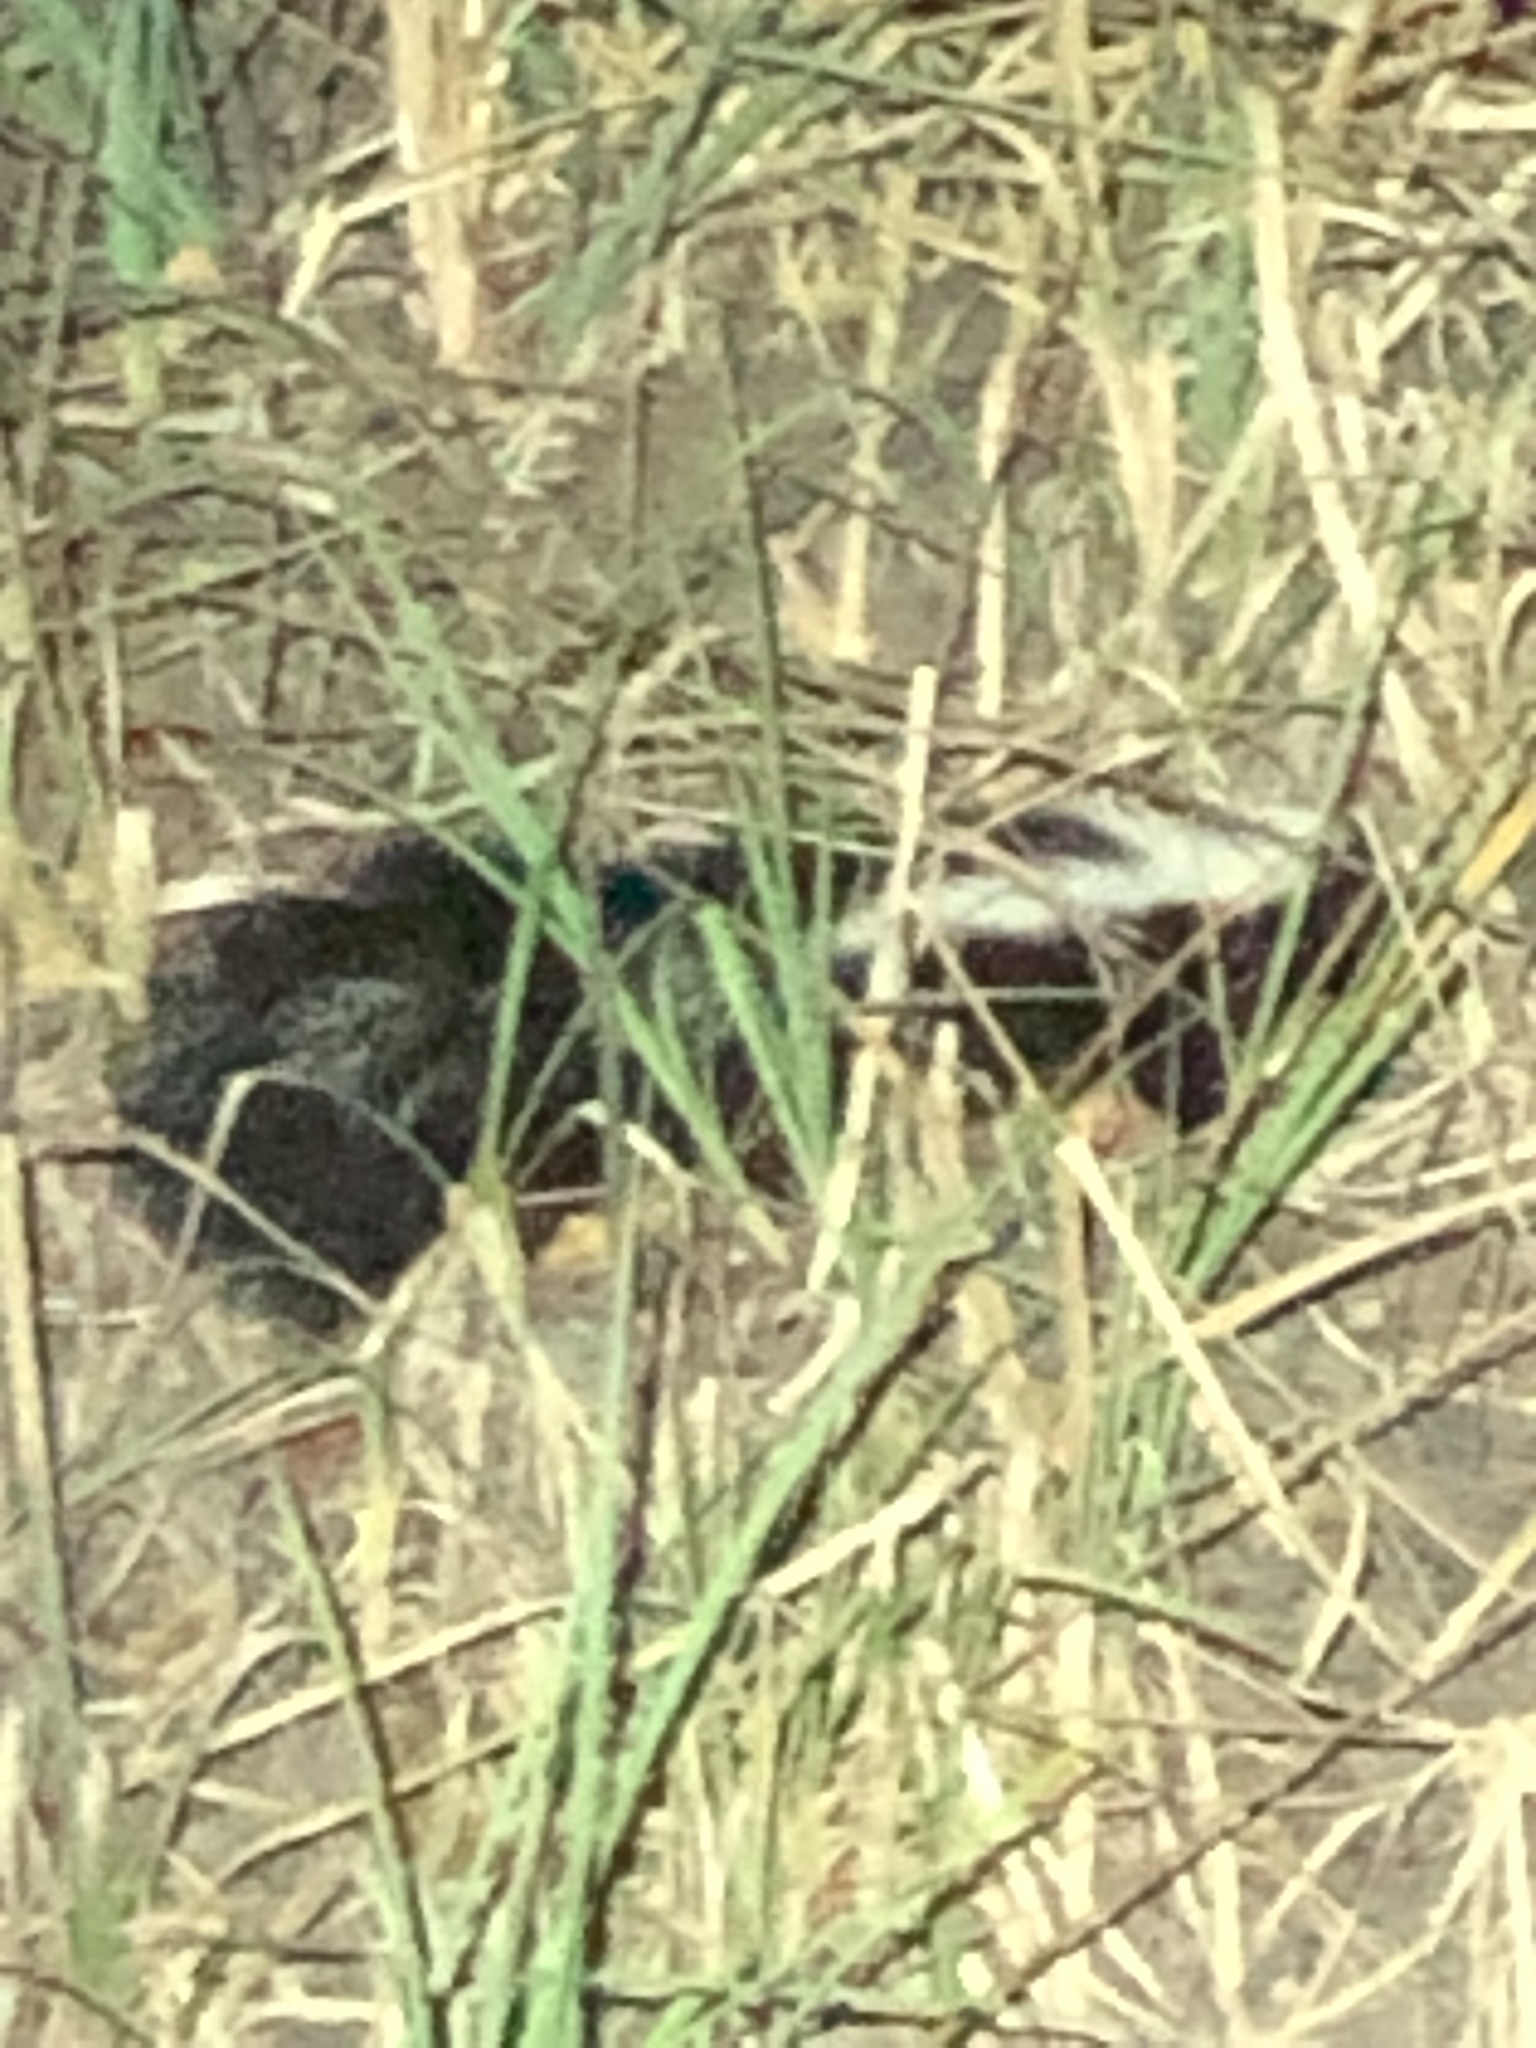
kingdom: Animalia
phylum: Chordata
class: Mammalia
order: Carnivora
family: Mephitidae
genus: Mephitis
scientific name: Mephitis mephitis
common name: Striped skunk
